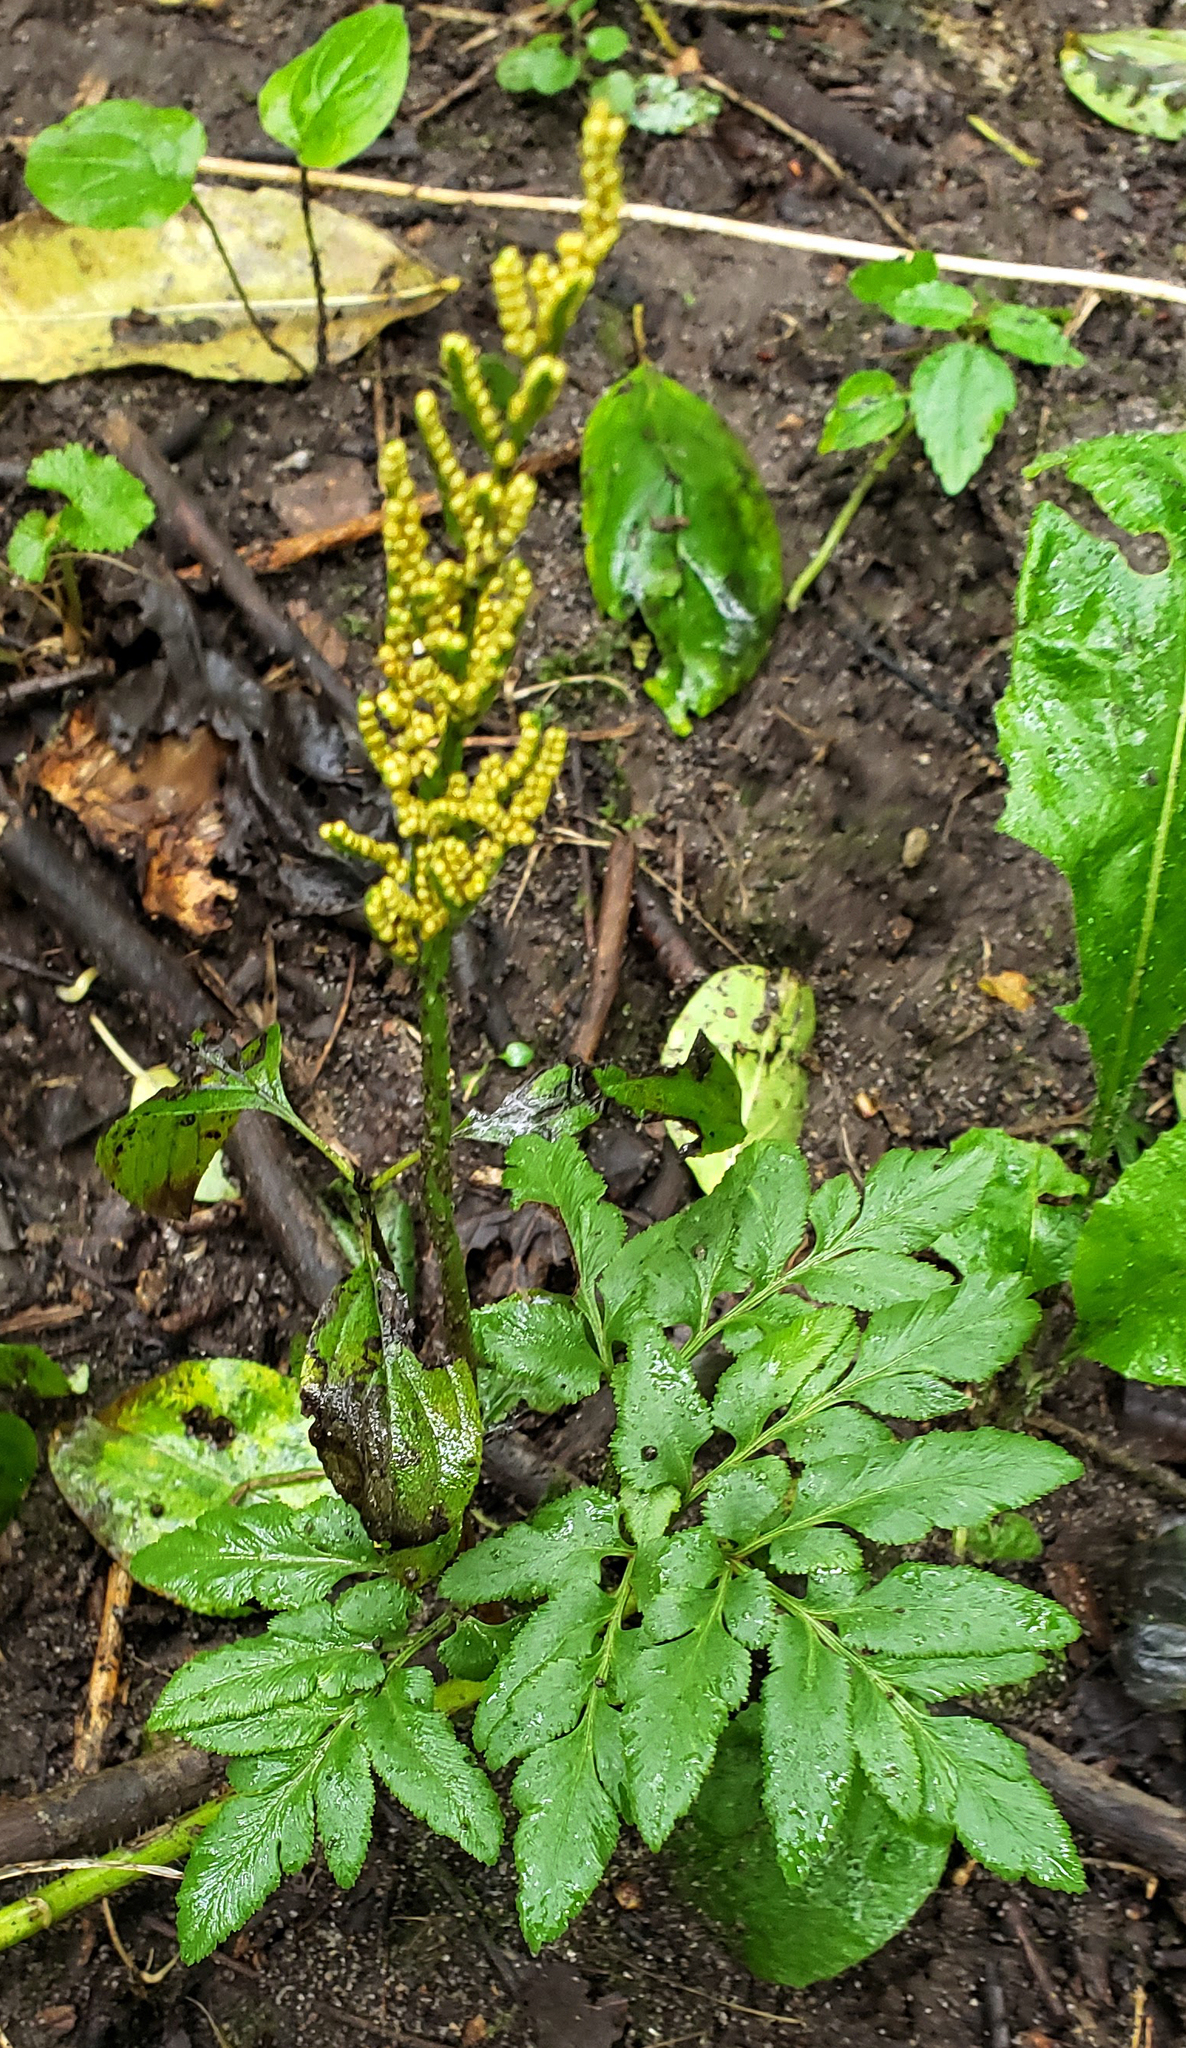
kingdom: Plantae
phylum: Tracheophyta
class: Polypodiopsida
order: Ophioglossales
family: Ophioglossaceae
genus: Sceptridium
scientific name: Sceptridium dissectum
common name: Cut-leaved grapefern
